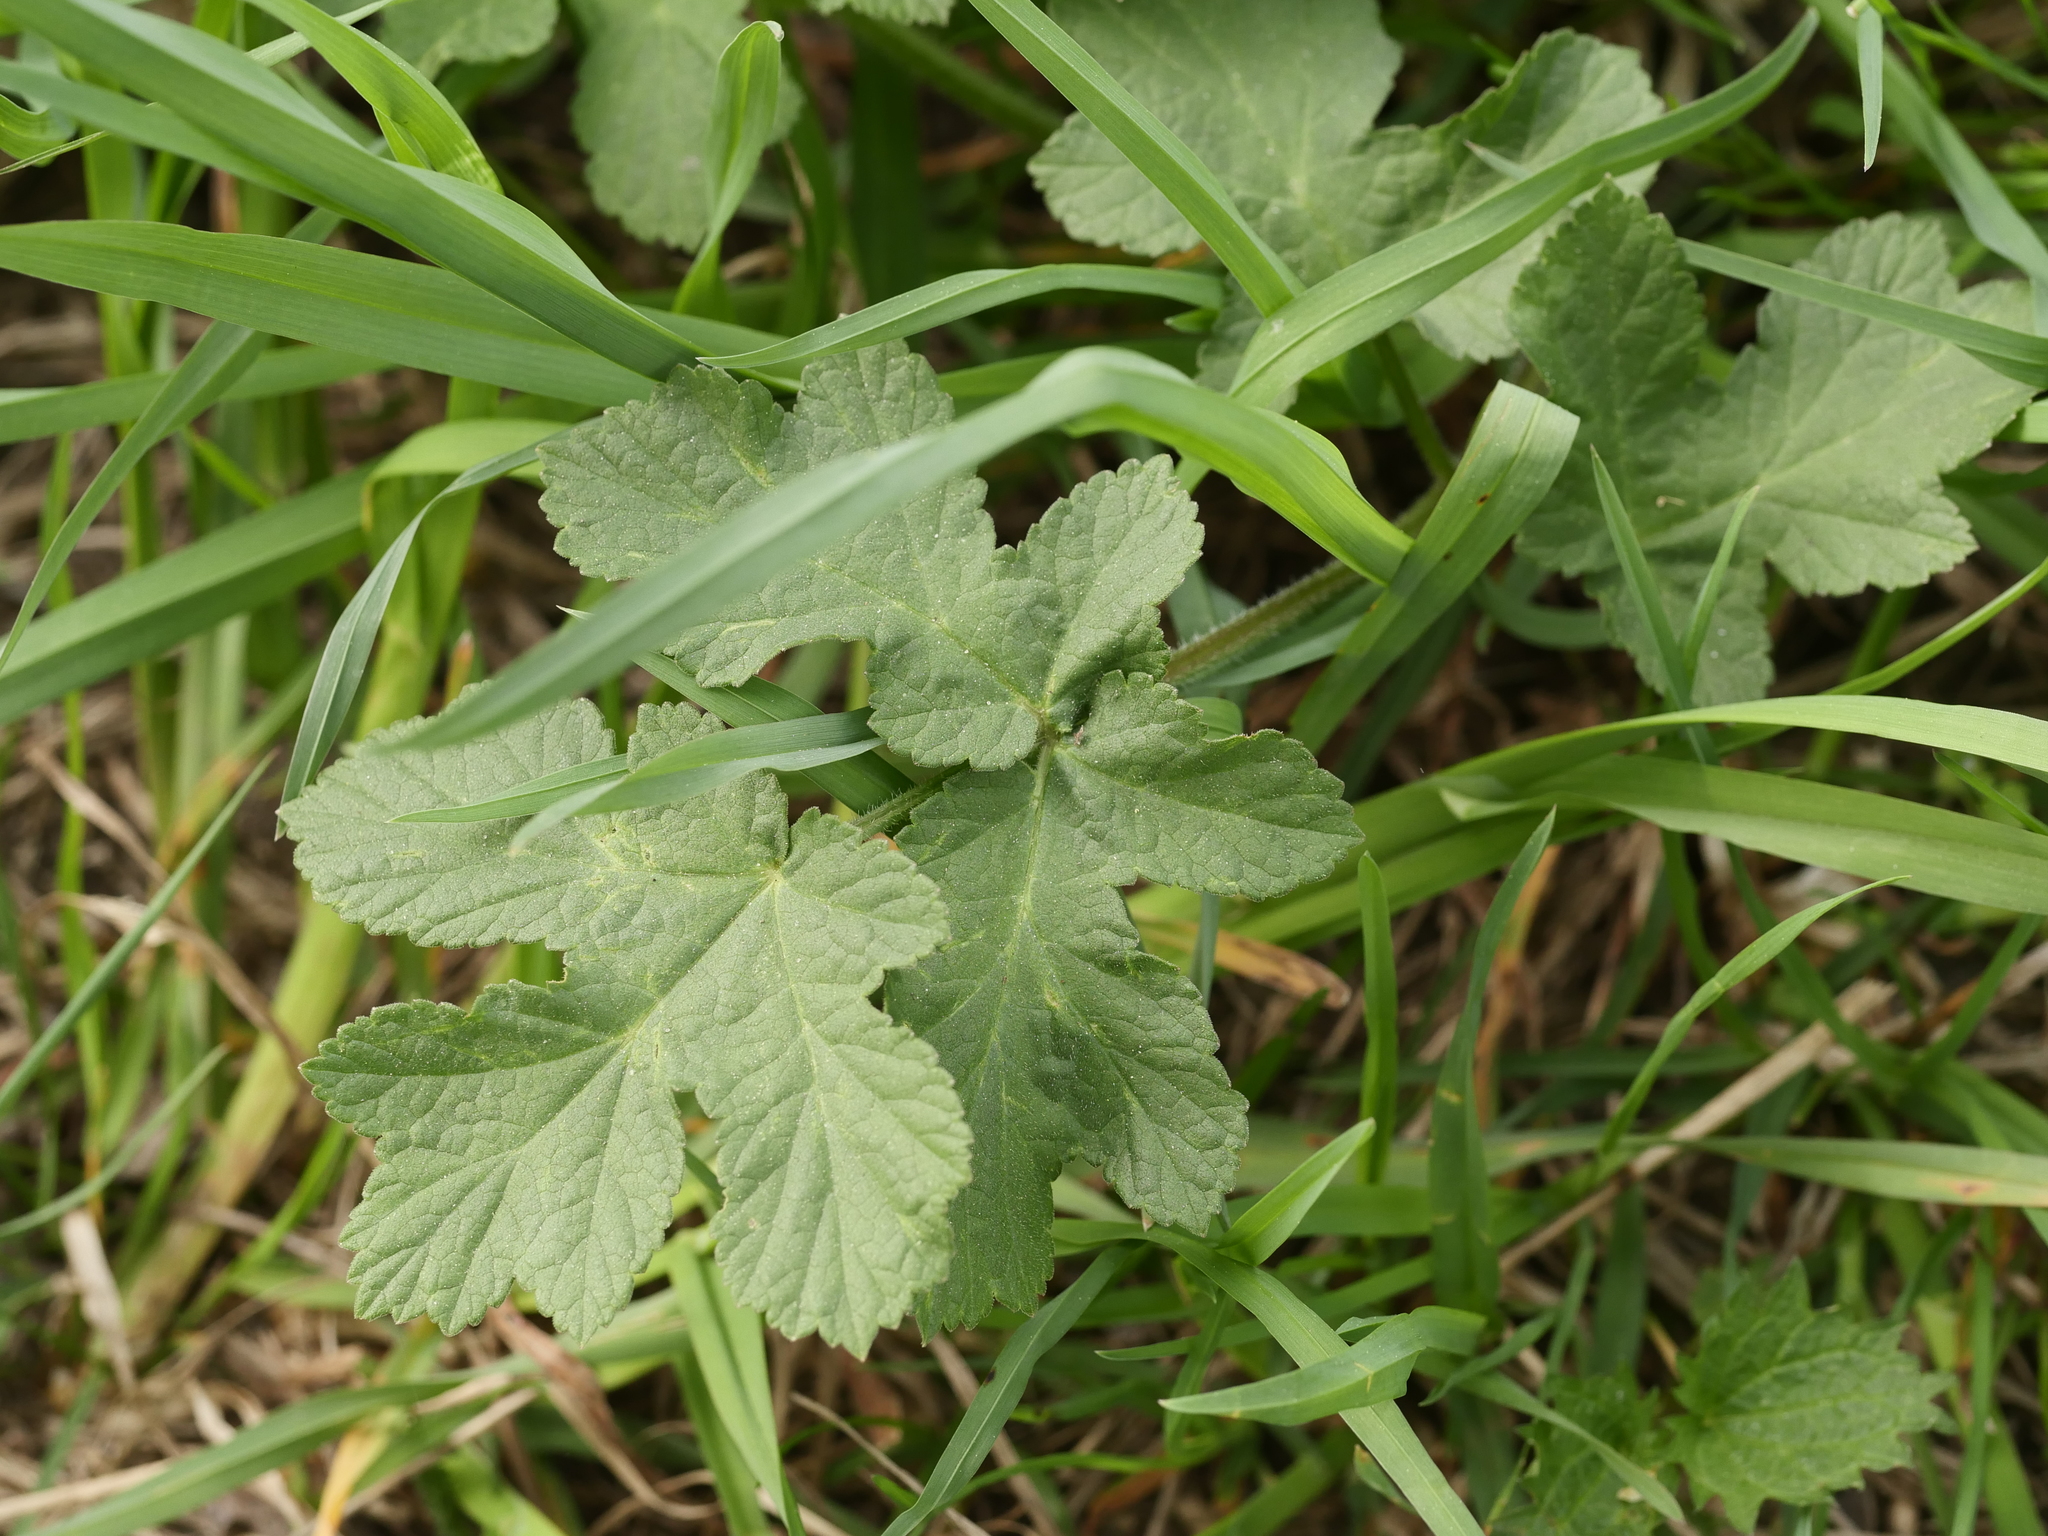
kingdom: Plantae
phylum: Tracheophyta
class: Magnoliopsida
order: Apiales
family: Apiaceae
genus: Heracleum
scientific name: Heracleum sphondylium
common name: Hogweed
